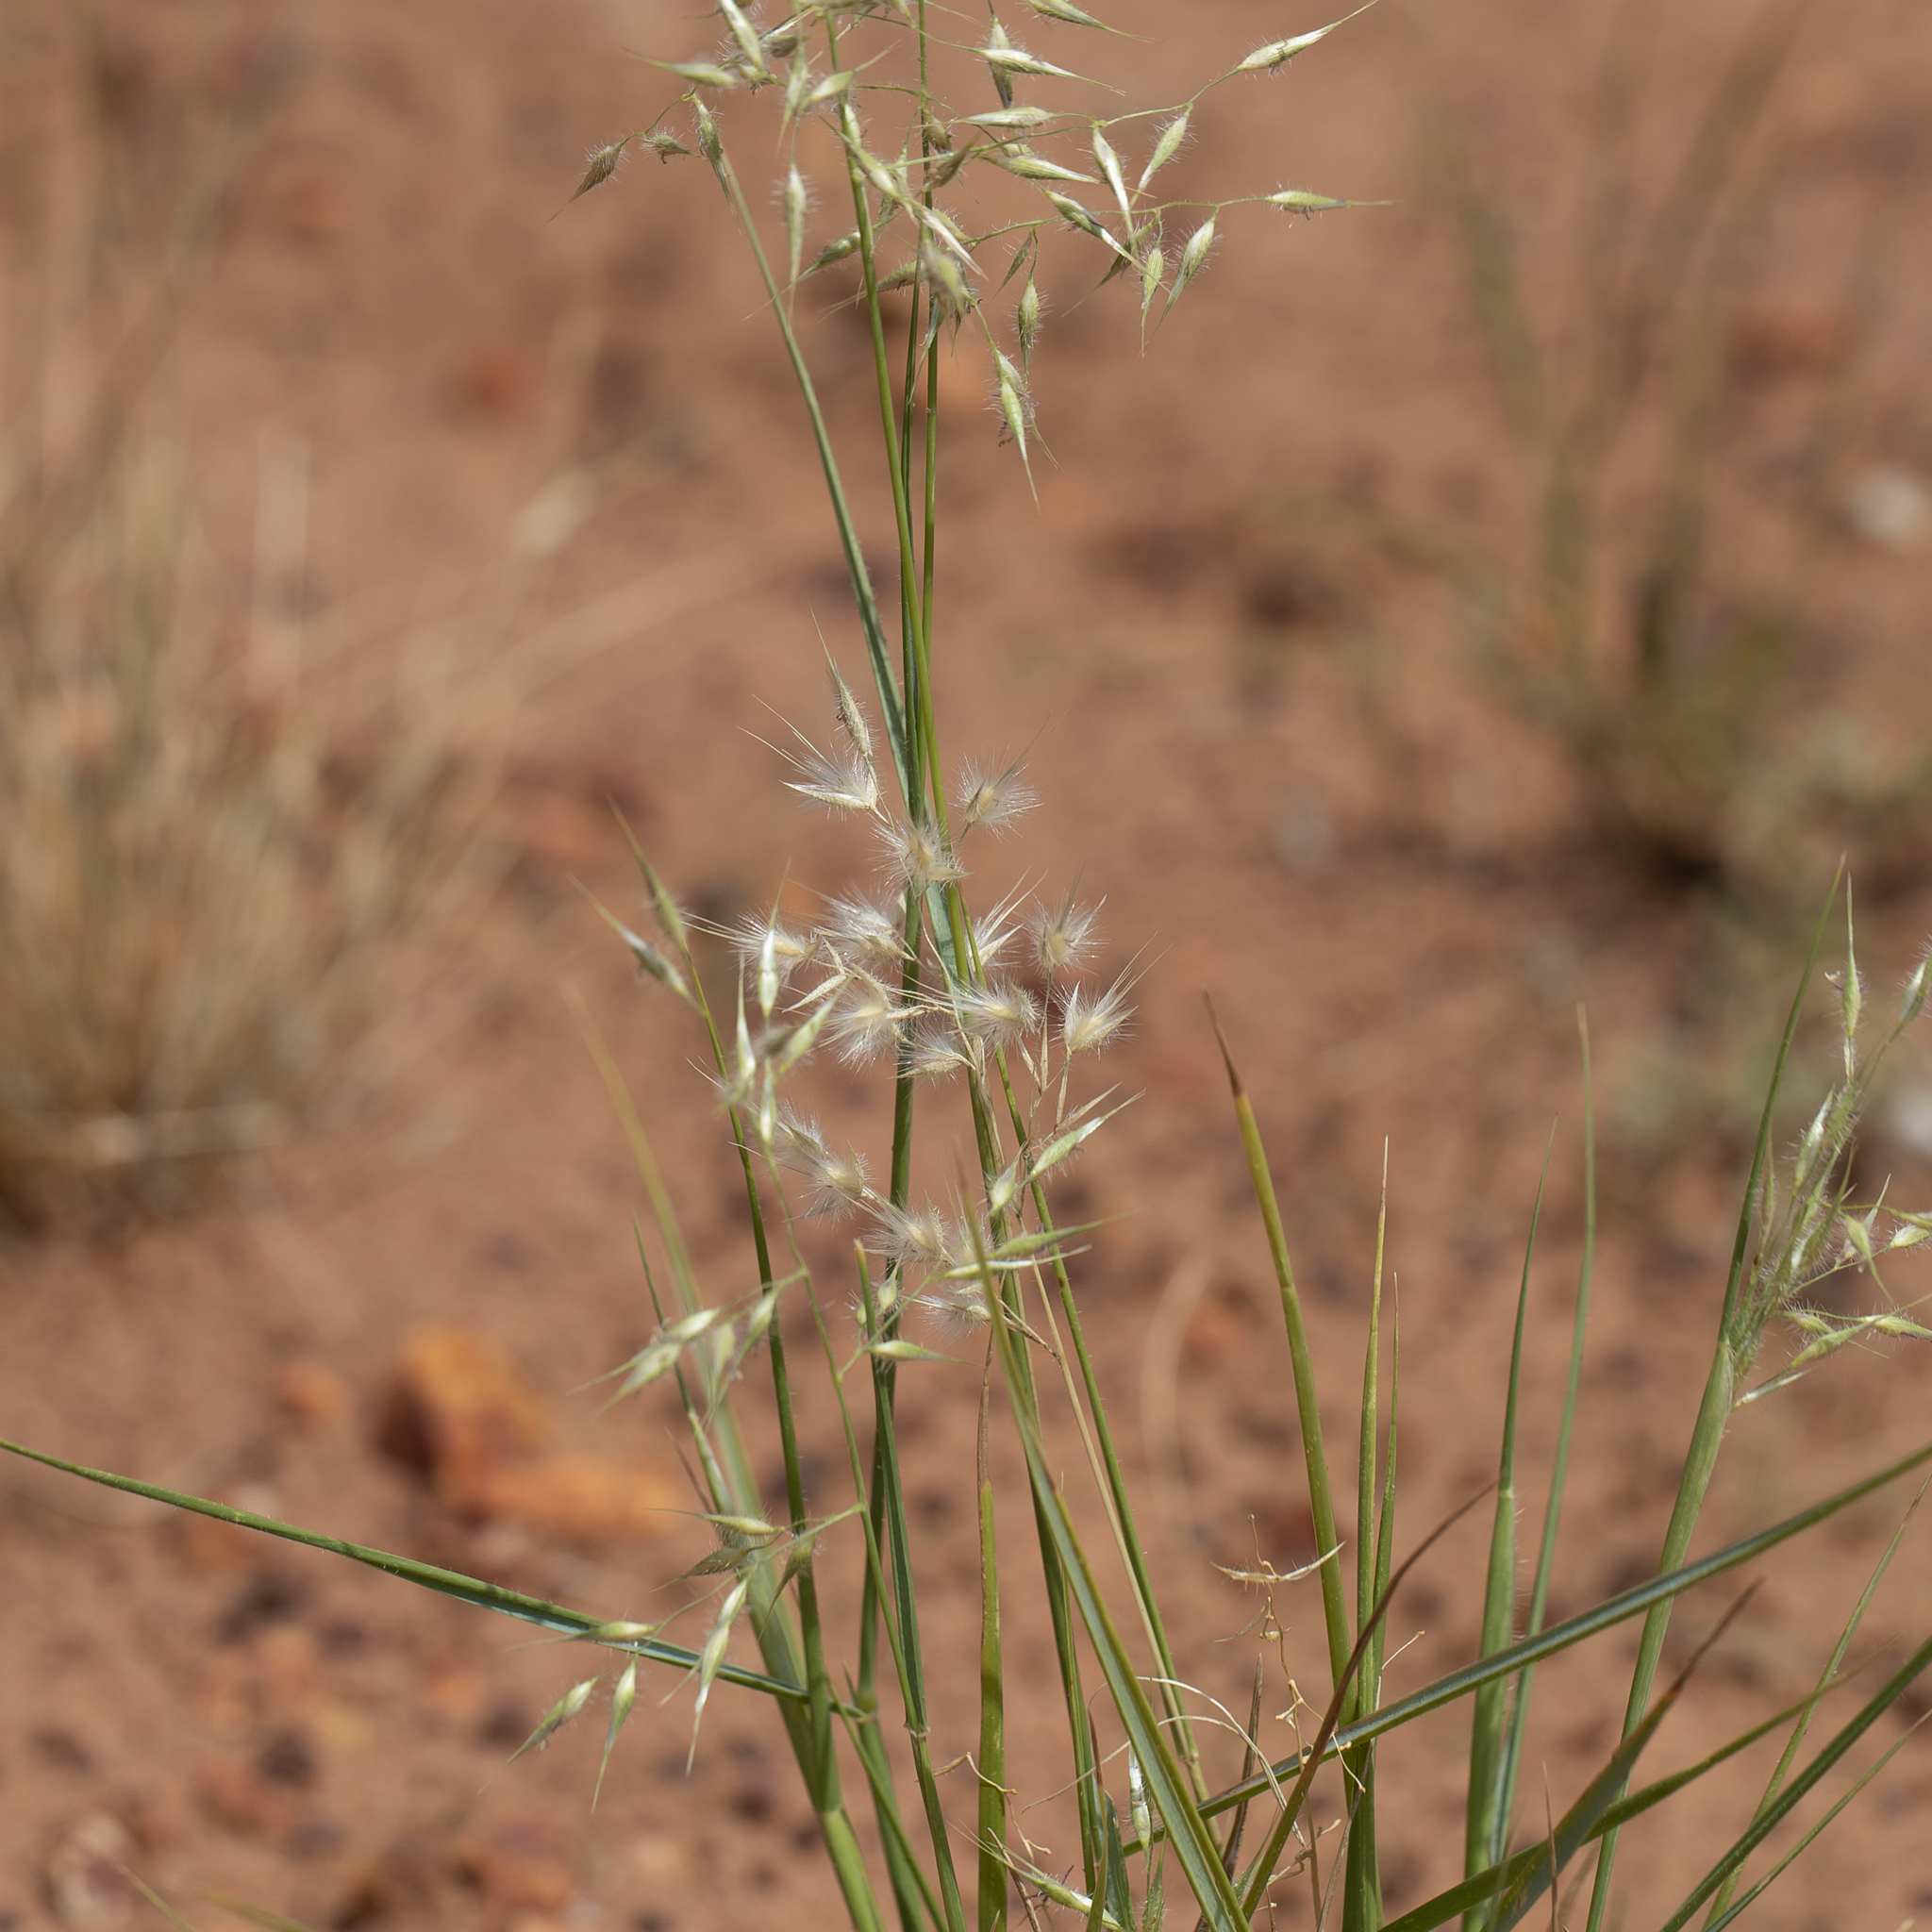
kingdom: Plantae
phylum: Tracheophyta
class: Liliopsida
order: Poales
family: Poaceae
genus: Eriachne
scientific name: Eriachne aristidea
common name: Three-awn wanderrie grass
